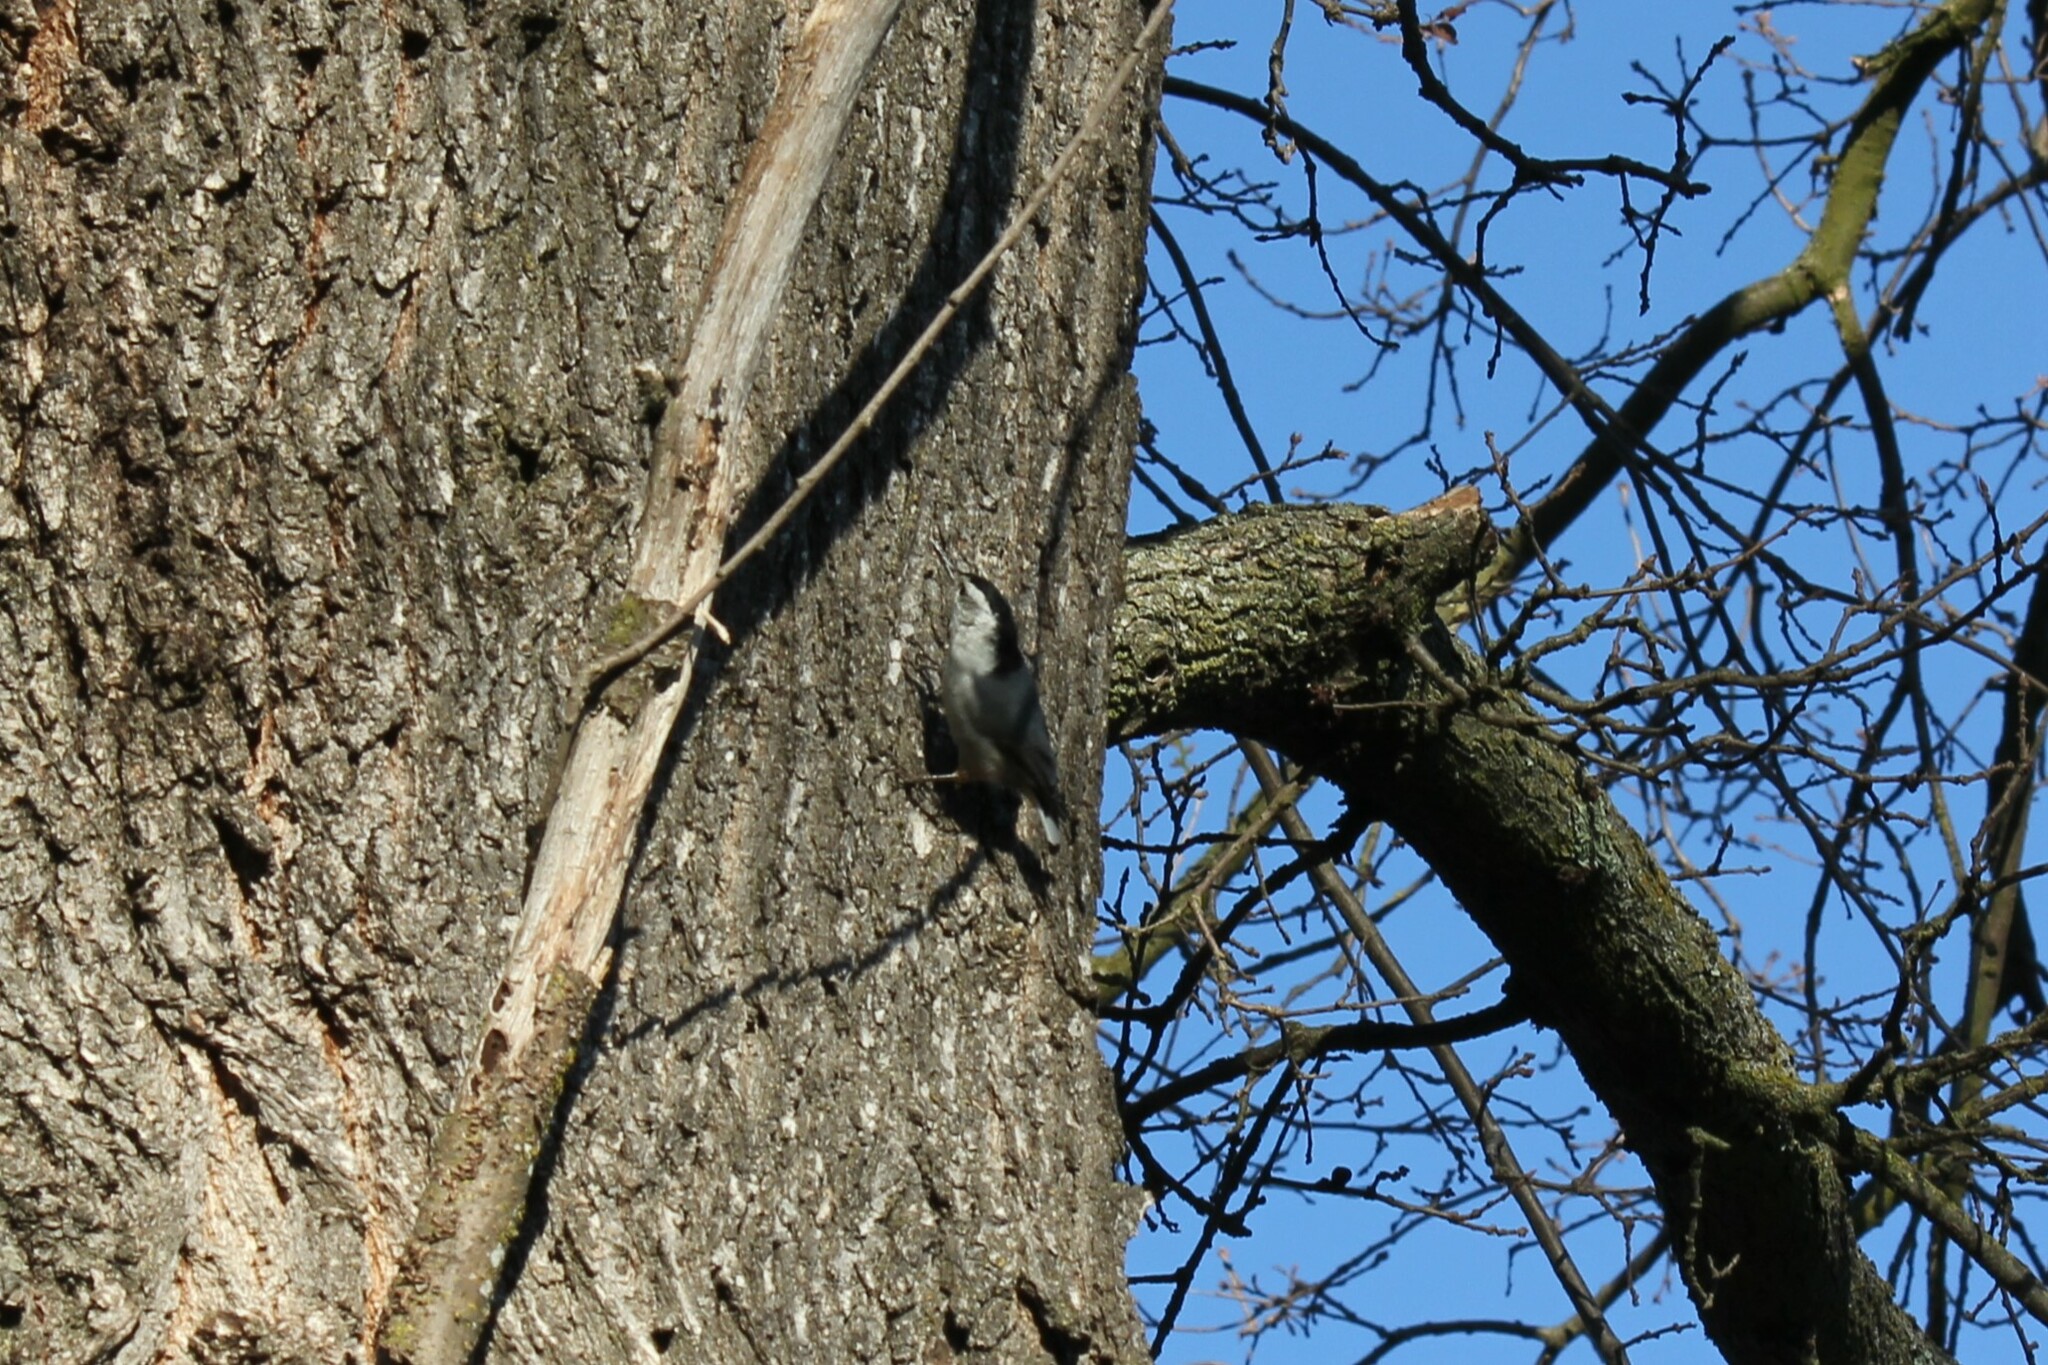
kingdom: Animalia
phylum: Chordata
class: Aves
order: Passeriformes
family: Sittidae
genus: Sitta
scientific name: Sitta carolinensis
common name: White-breasted nuthatch
